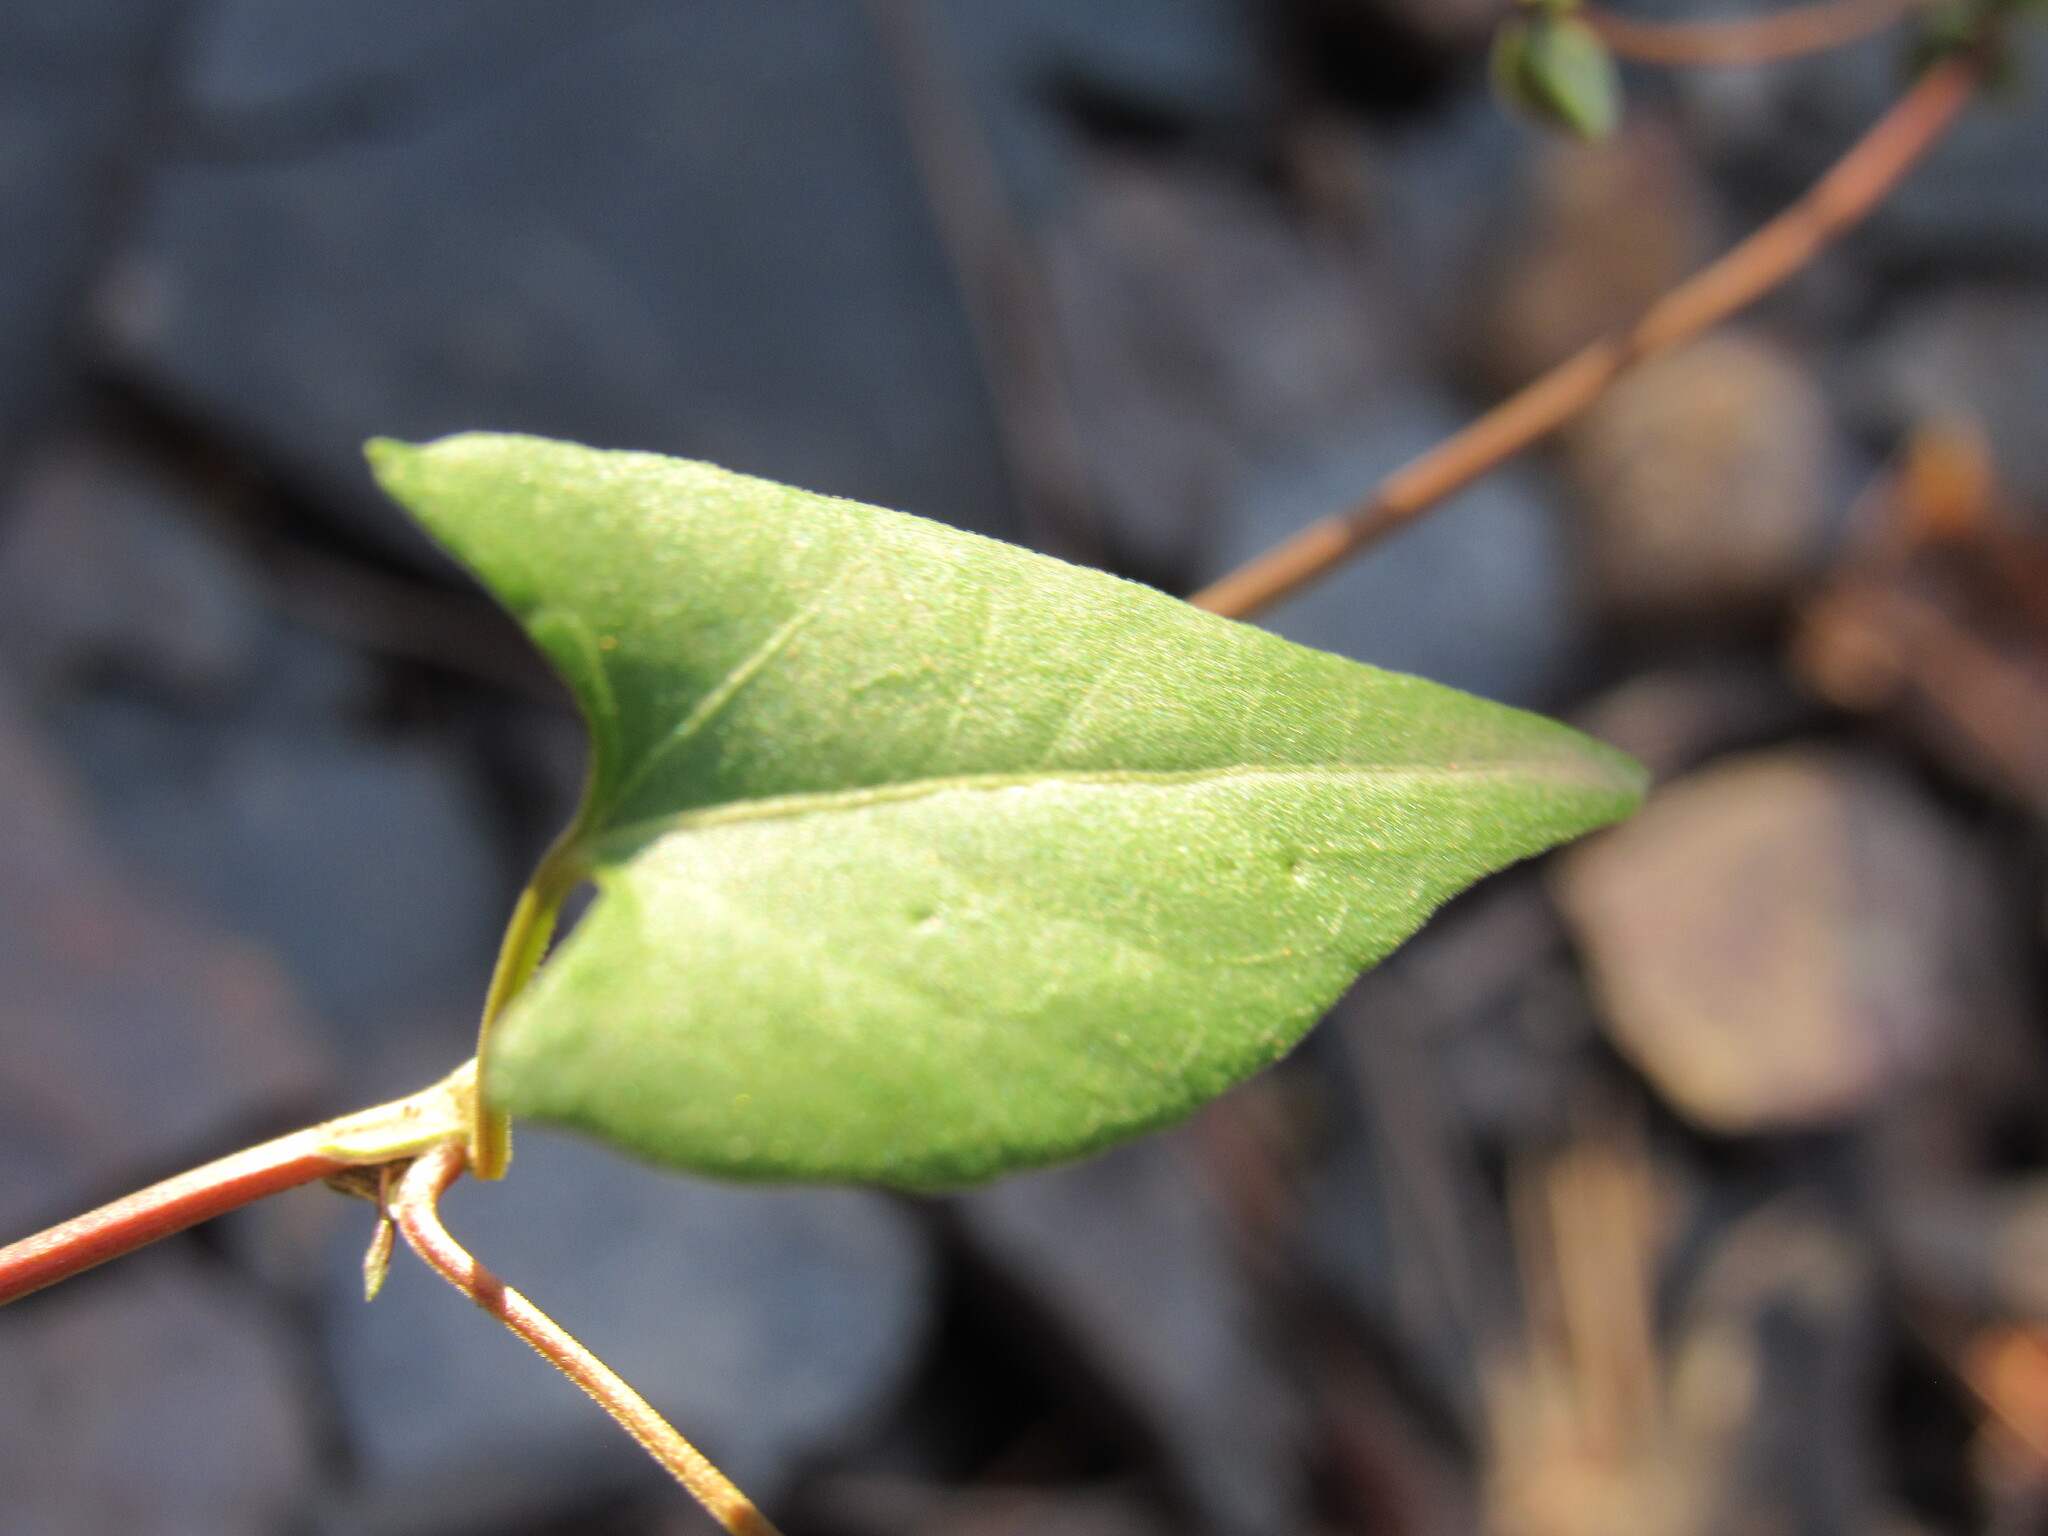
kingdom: Plantae
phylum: Tracheophyta
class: Magnoliopsida
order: Caryophyllales
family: Polygonaceae
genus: Fallopia
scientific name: Fallopia convolvulus
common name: Black bindweed
